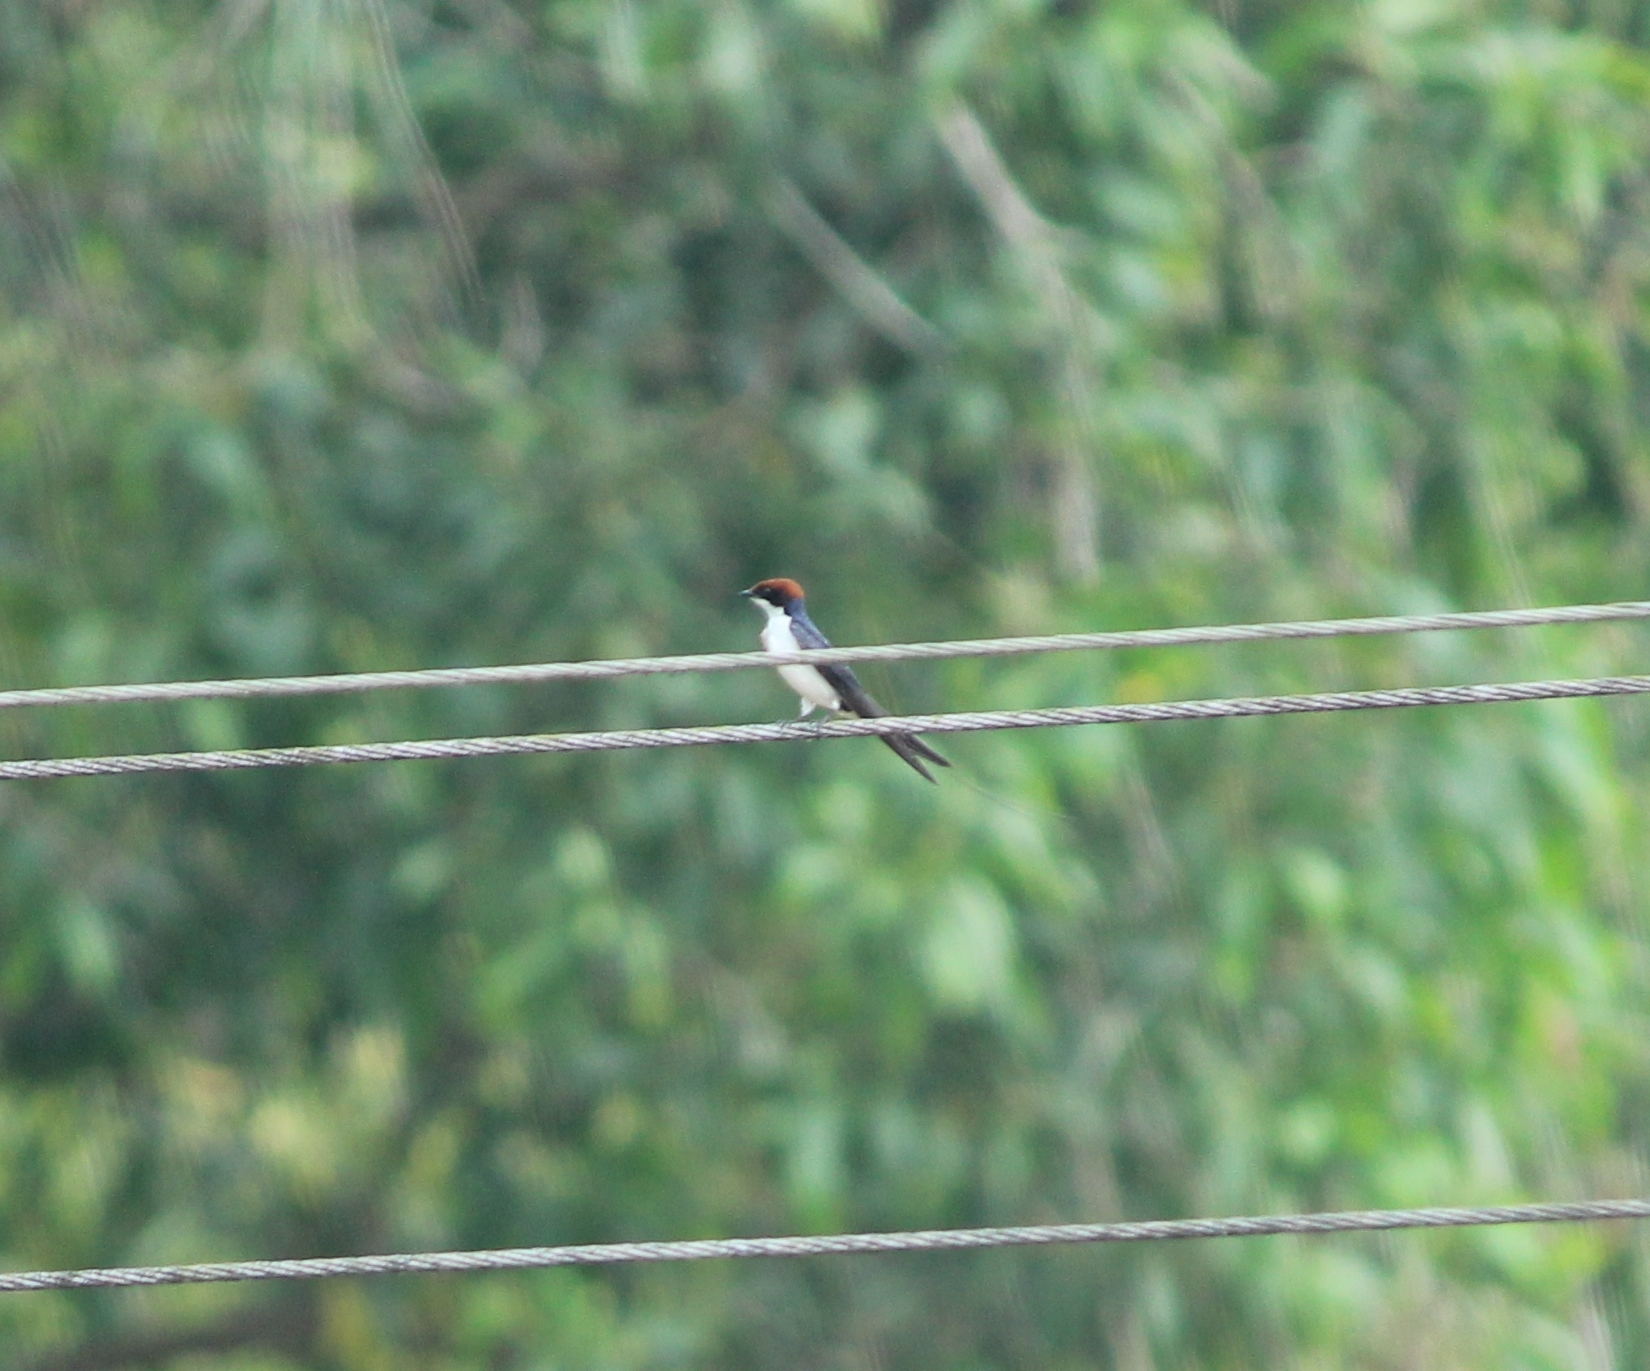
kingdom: Animalia
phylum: Chordata
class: Aves
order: Passeriformes
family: Hirundinidae
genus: Hirundo
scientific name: Hirundo smithii
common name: Wire-tailed swallow
